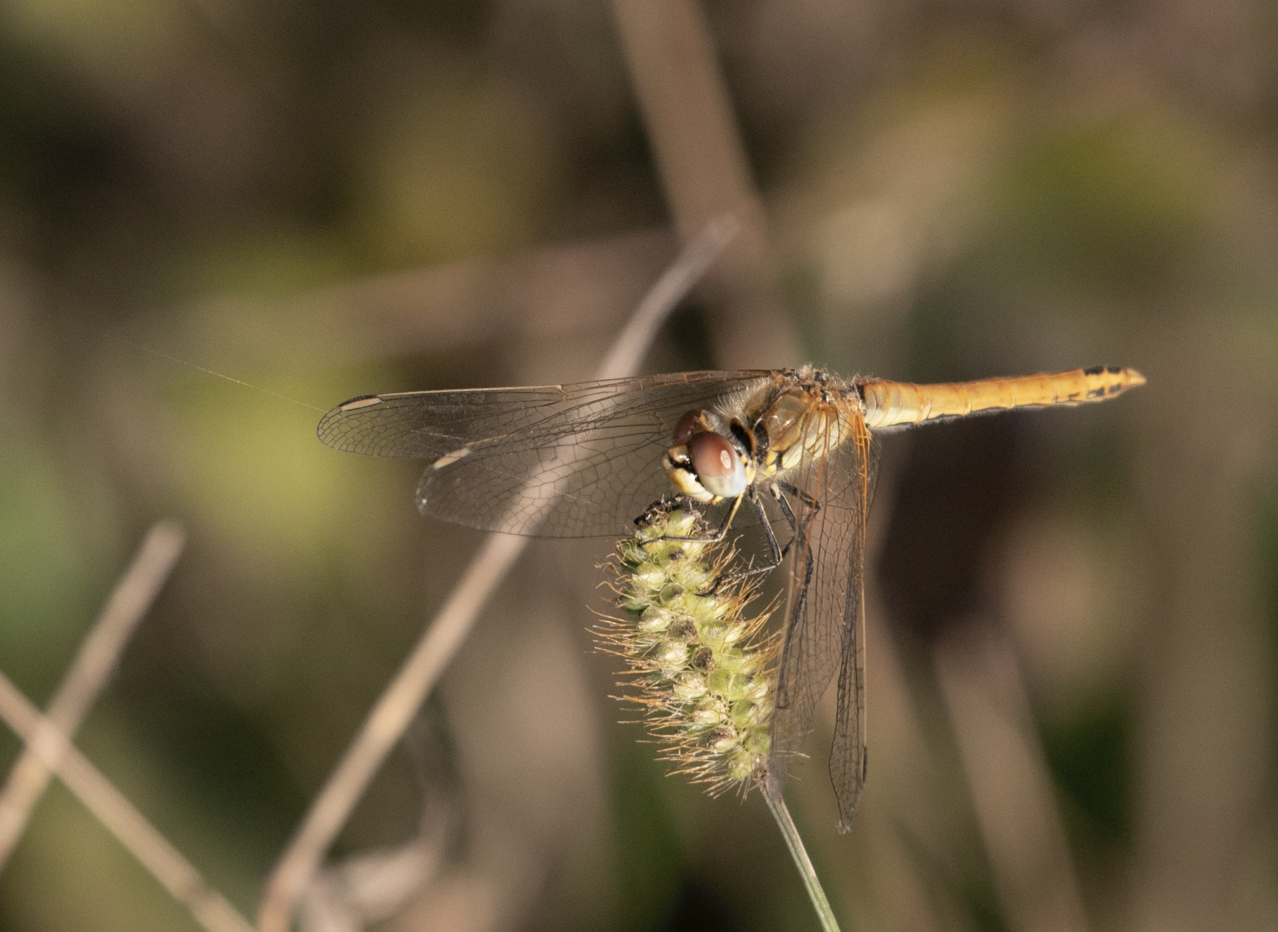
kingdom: Animalia
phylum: Arthropoda
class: Insecta
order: Odonata
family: Libellulidae
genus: Sympetrum
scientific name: Sympetrum fonscolombii
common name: Red-veined darter
